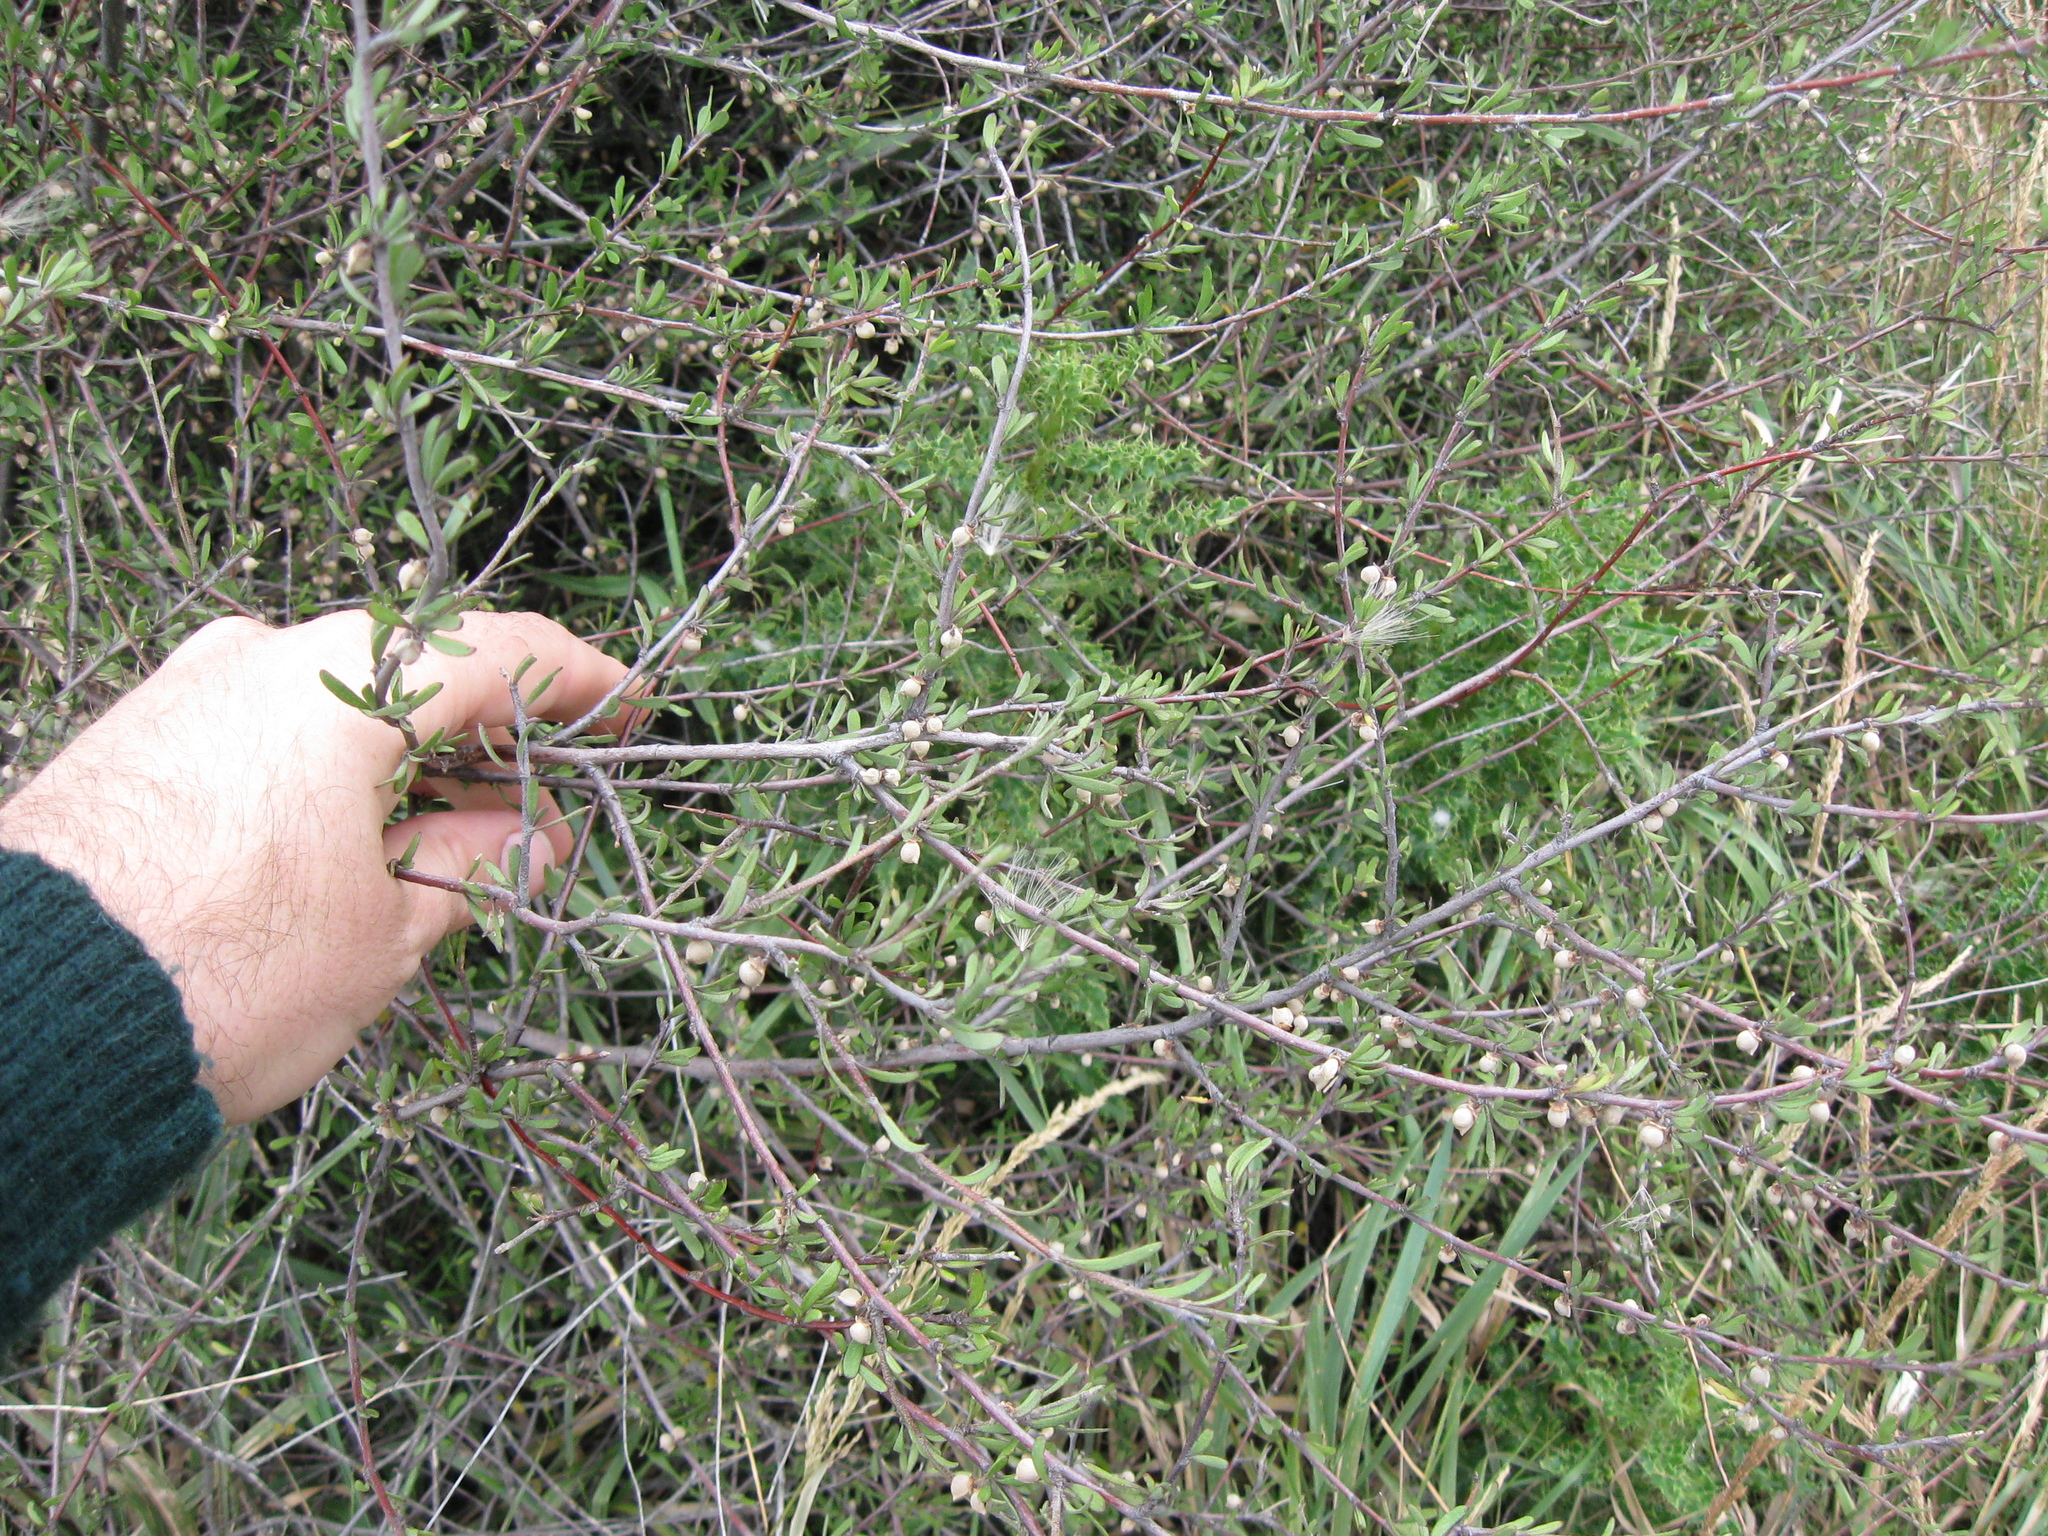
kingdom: Plantae
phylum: Tracheophyta
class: Magnoliopsida
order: Malvales
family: Malvaceae
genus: Plagianthus
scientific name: Plagianthus divaricatus
